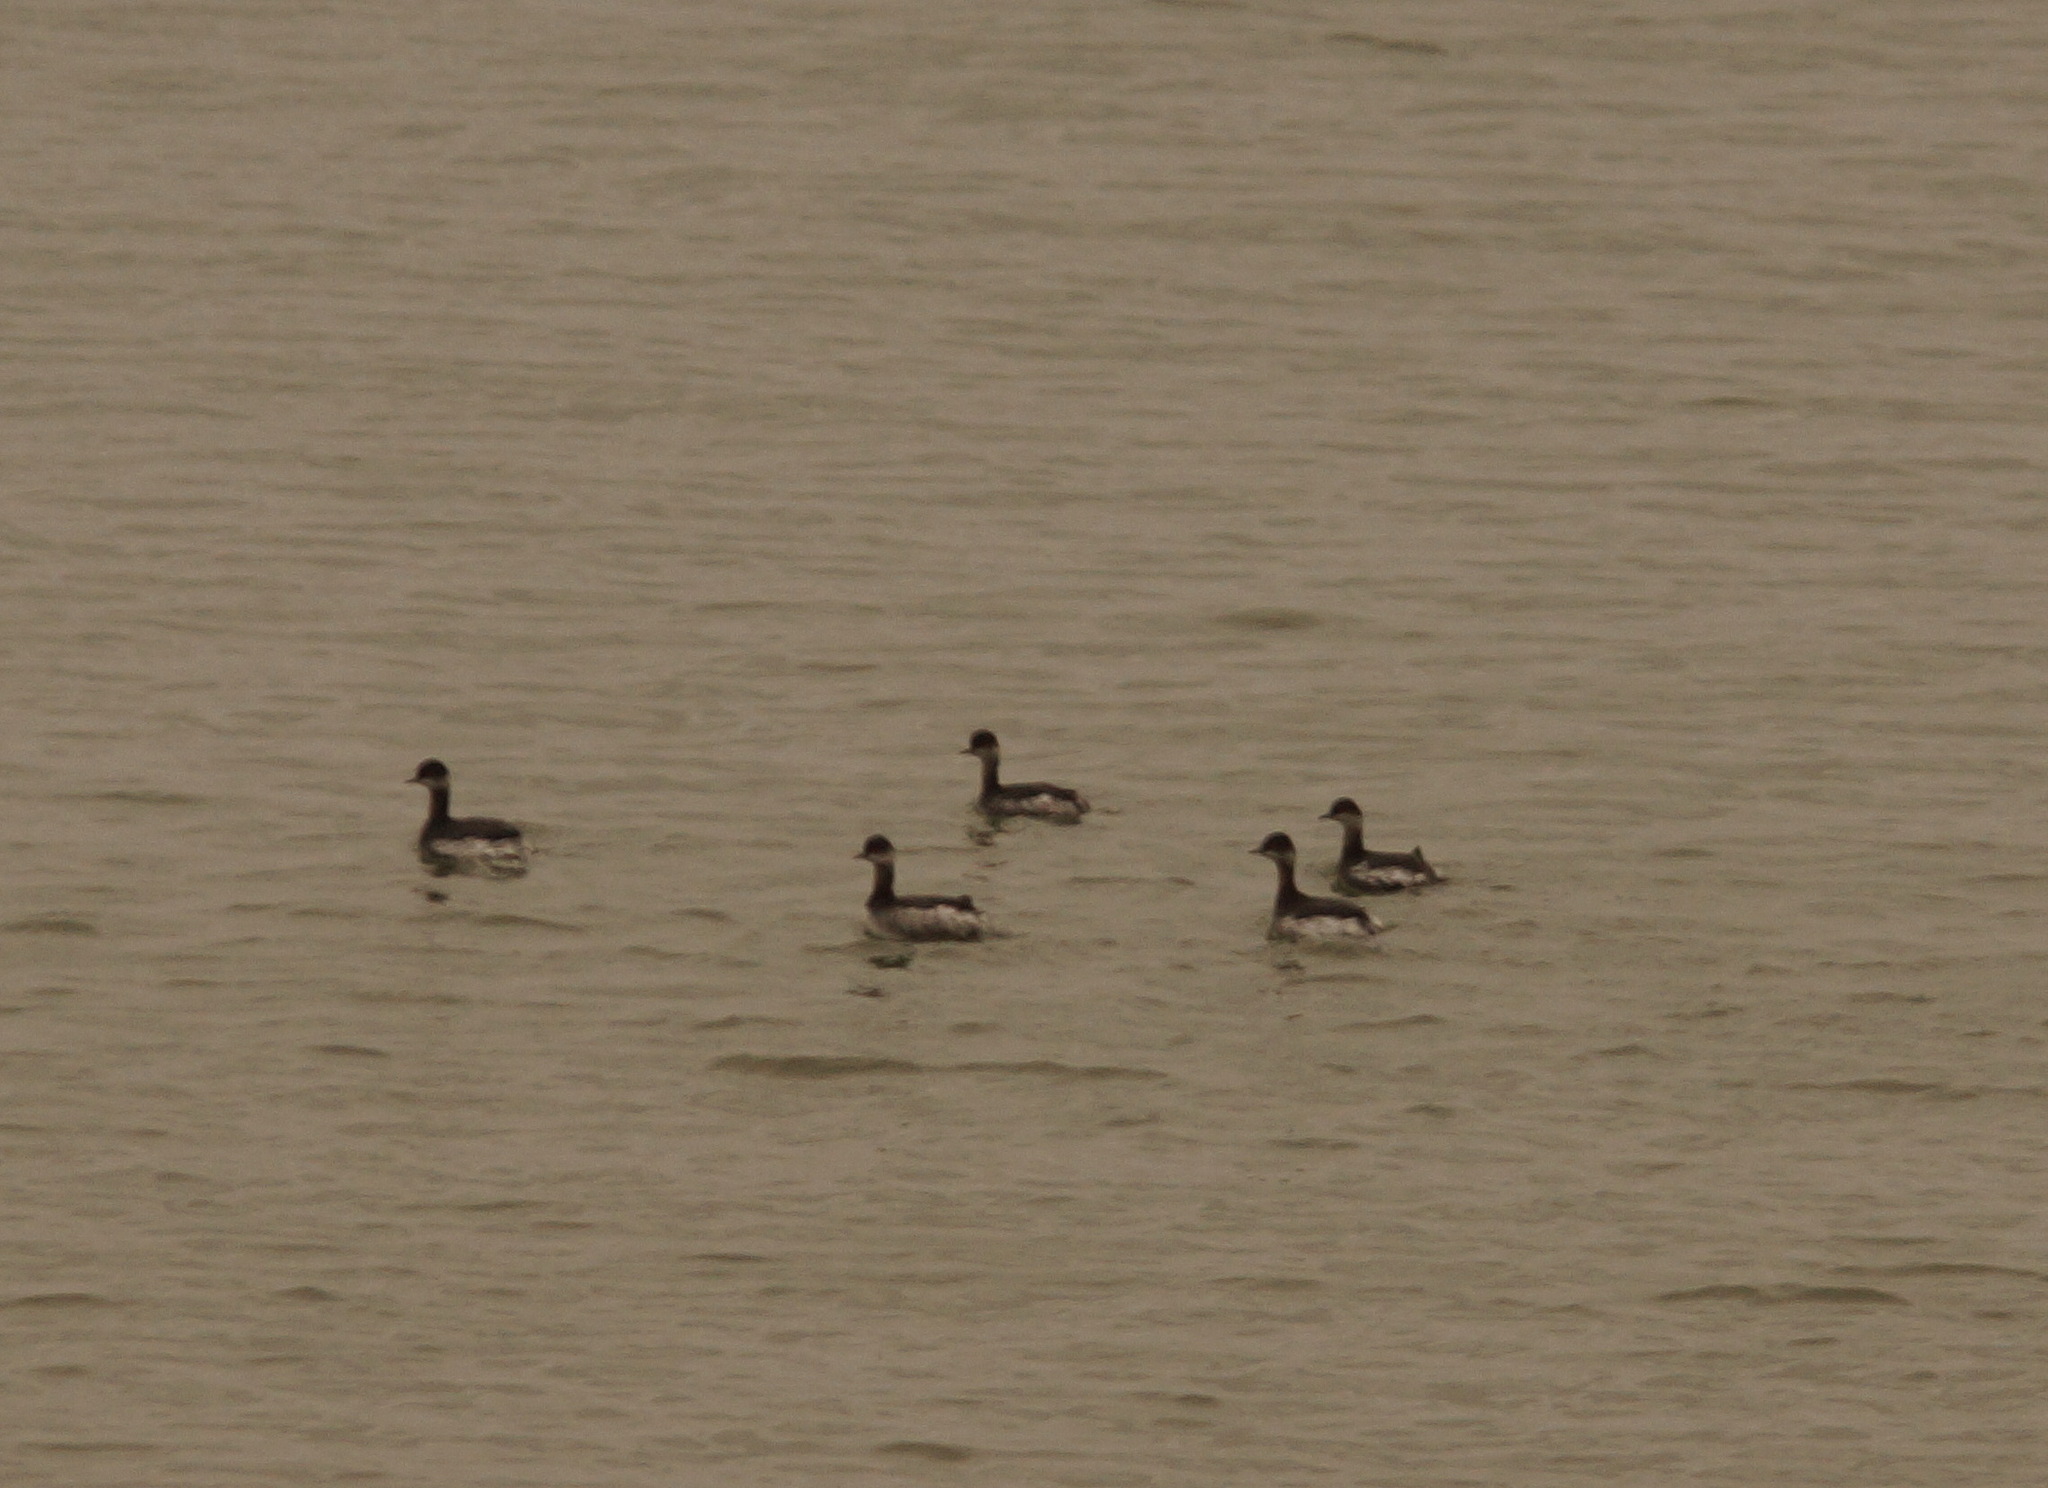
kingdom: Animalia
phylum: Chordata
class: Aves
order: Podicipediformes
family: Podicipedidae
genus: Podiceps
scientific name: Podiceps nigricollis
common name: Black-necked grebe
